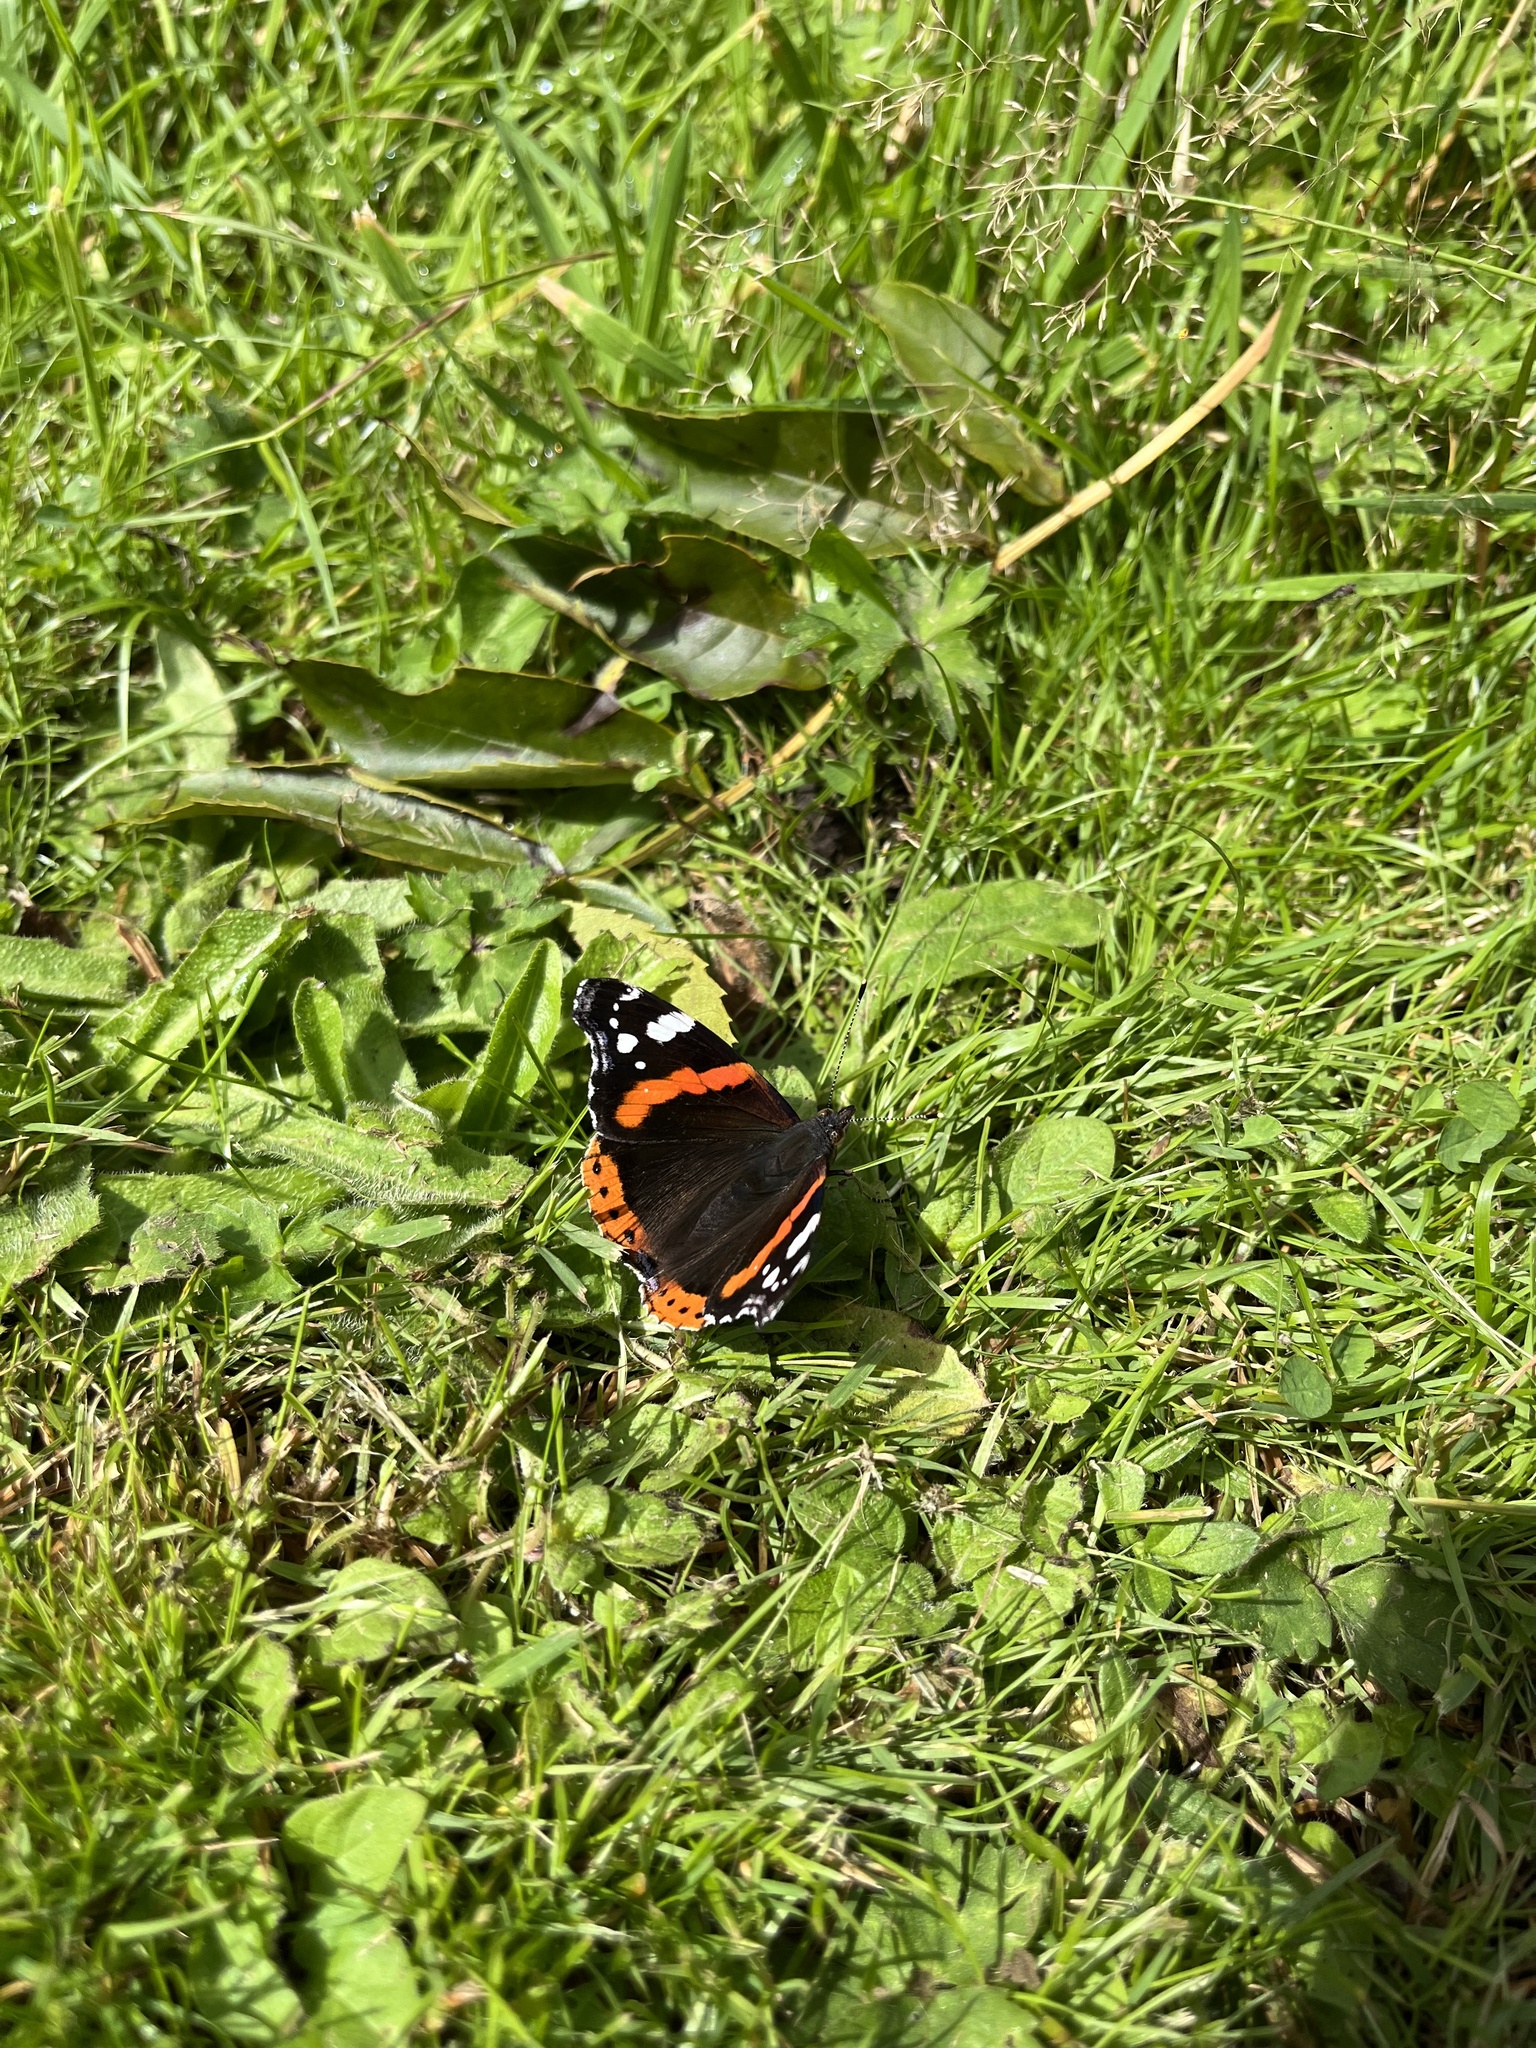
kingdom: Animalia
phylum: Arthropoda
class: Insecta
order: Lepidoptera
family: Nymphalidae
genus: Vanessa
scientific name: Vanessa atalanta
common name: Red admiral
